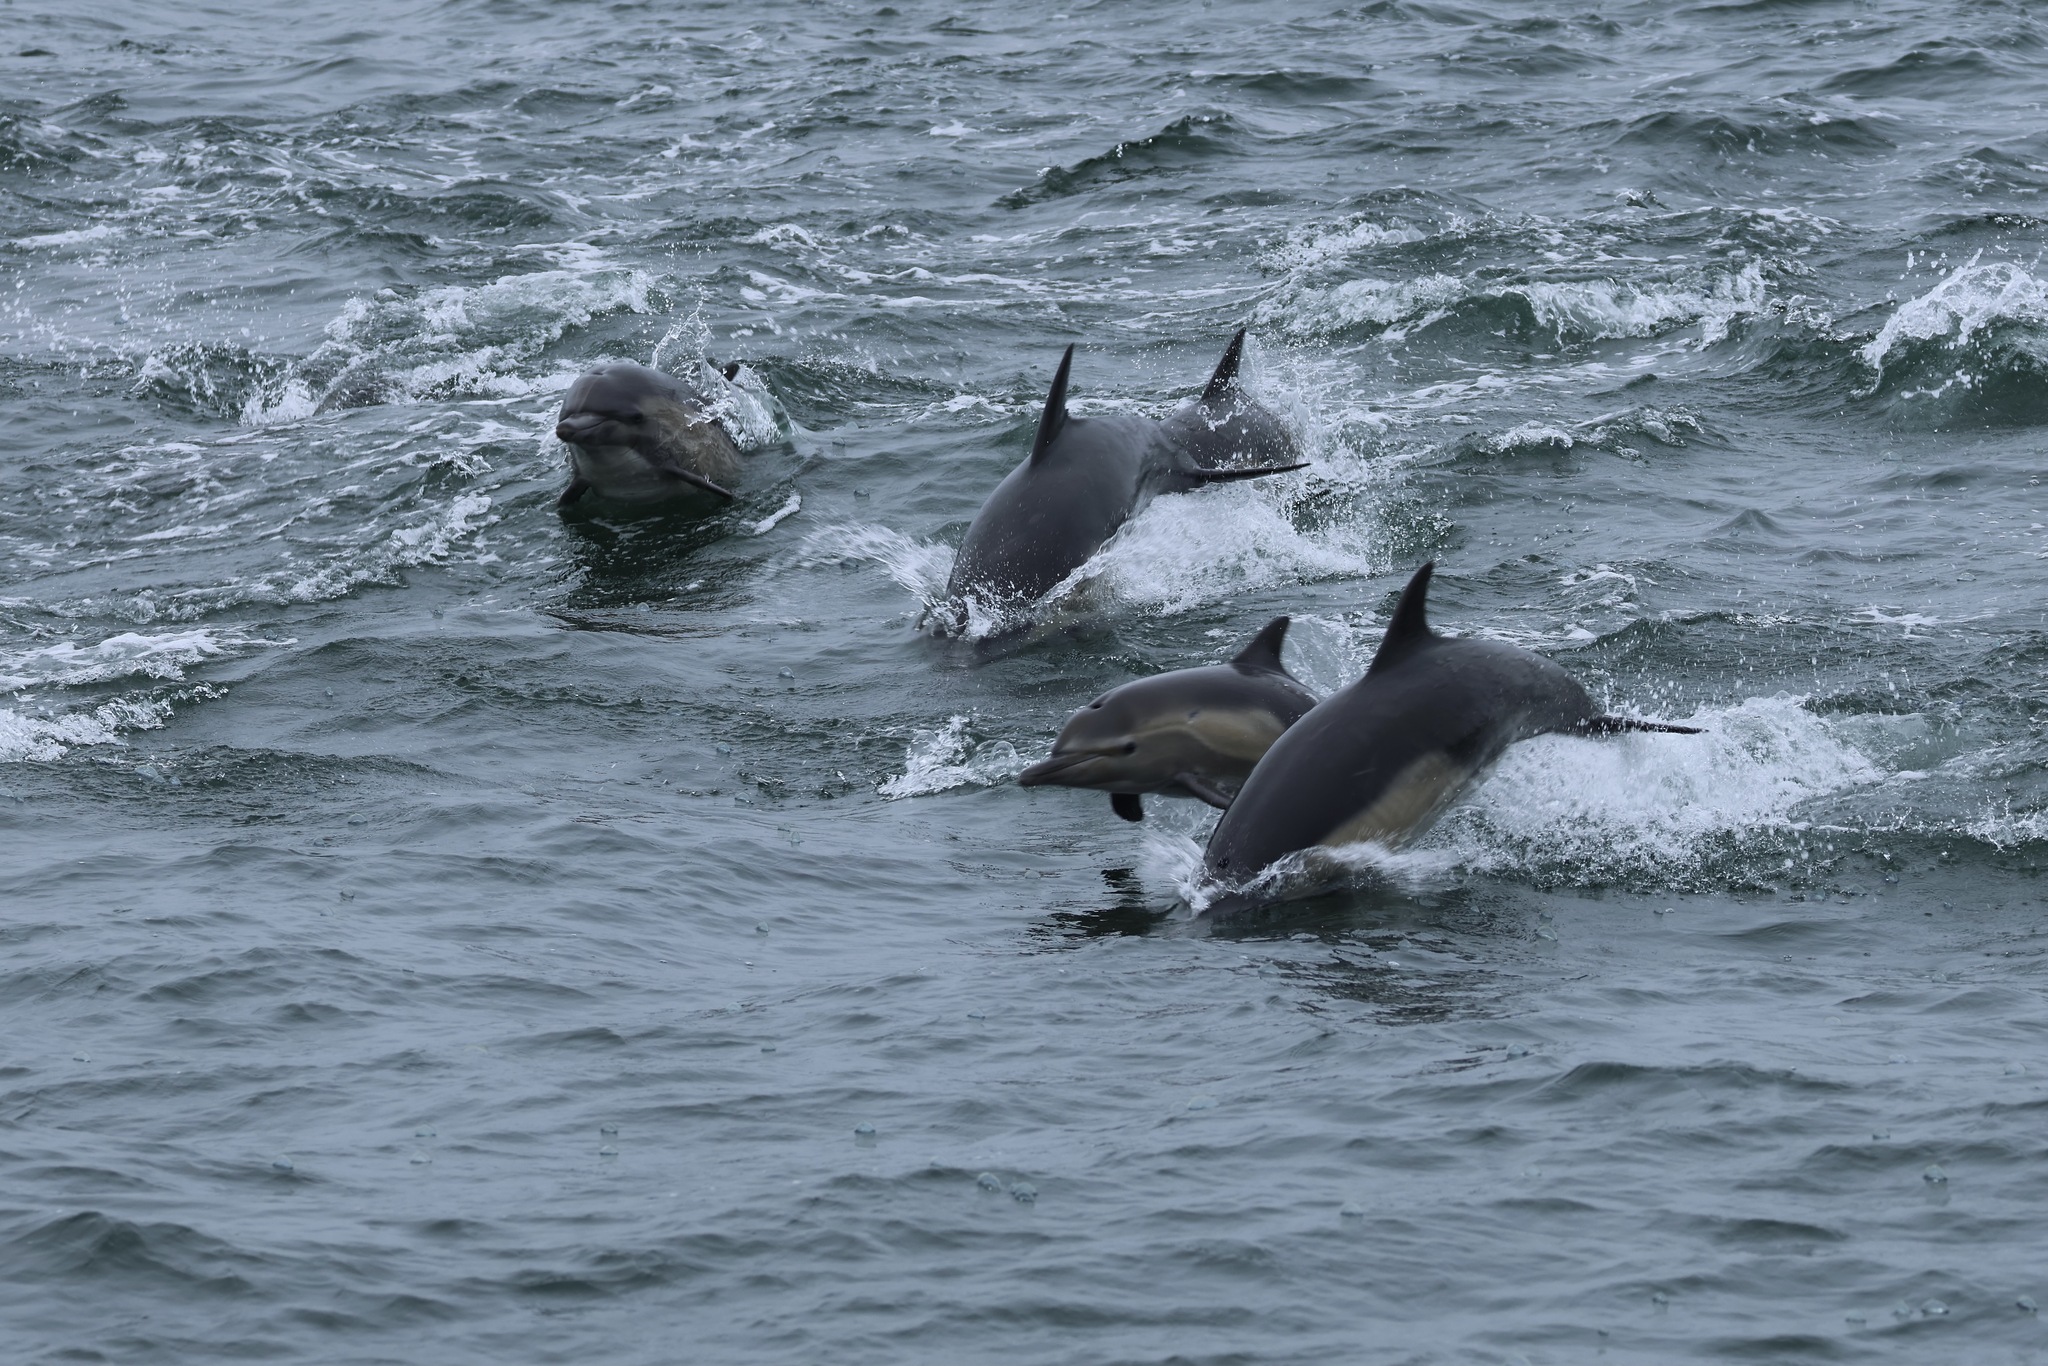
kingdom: Animalia
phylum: Chordata
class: Mammalia
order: Cetacea
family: Delphinidae
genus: Delphinus
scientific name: Delphinus delphis
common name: Common dolphin
